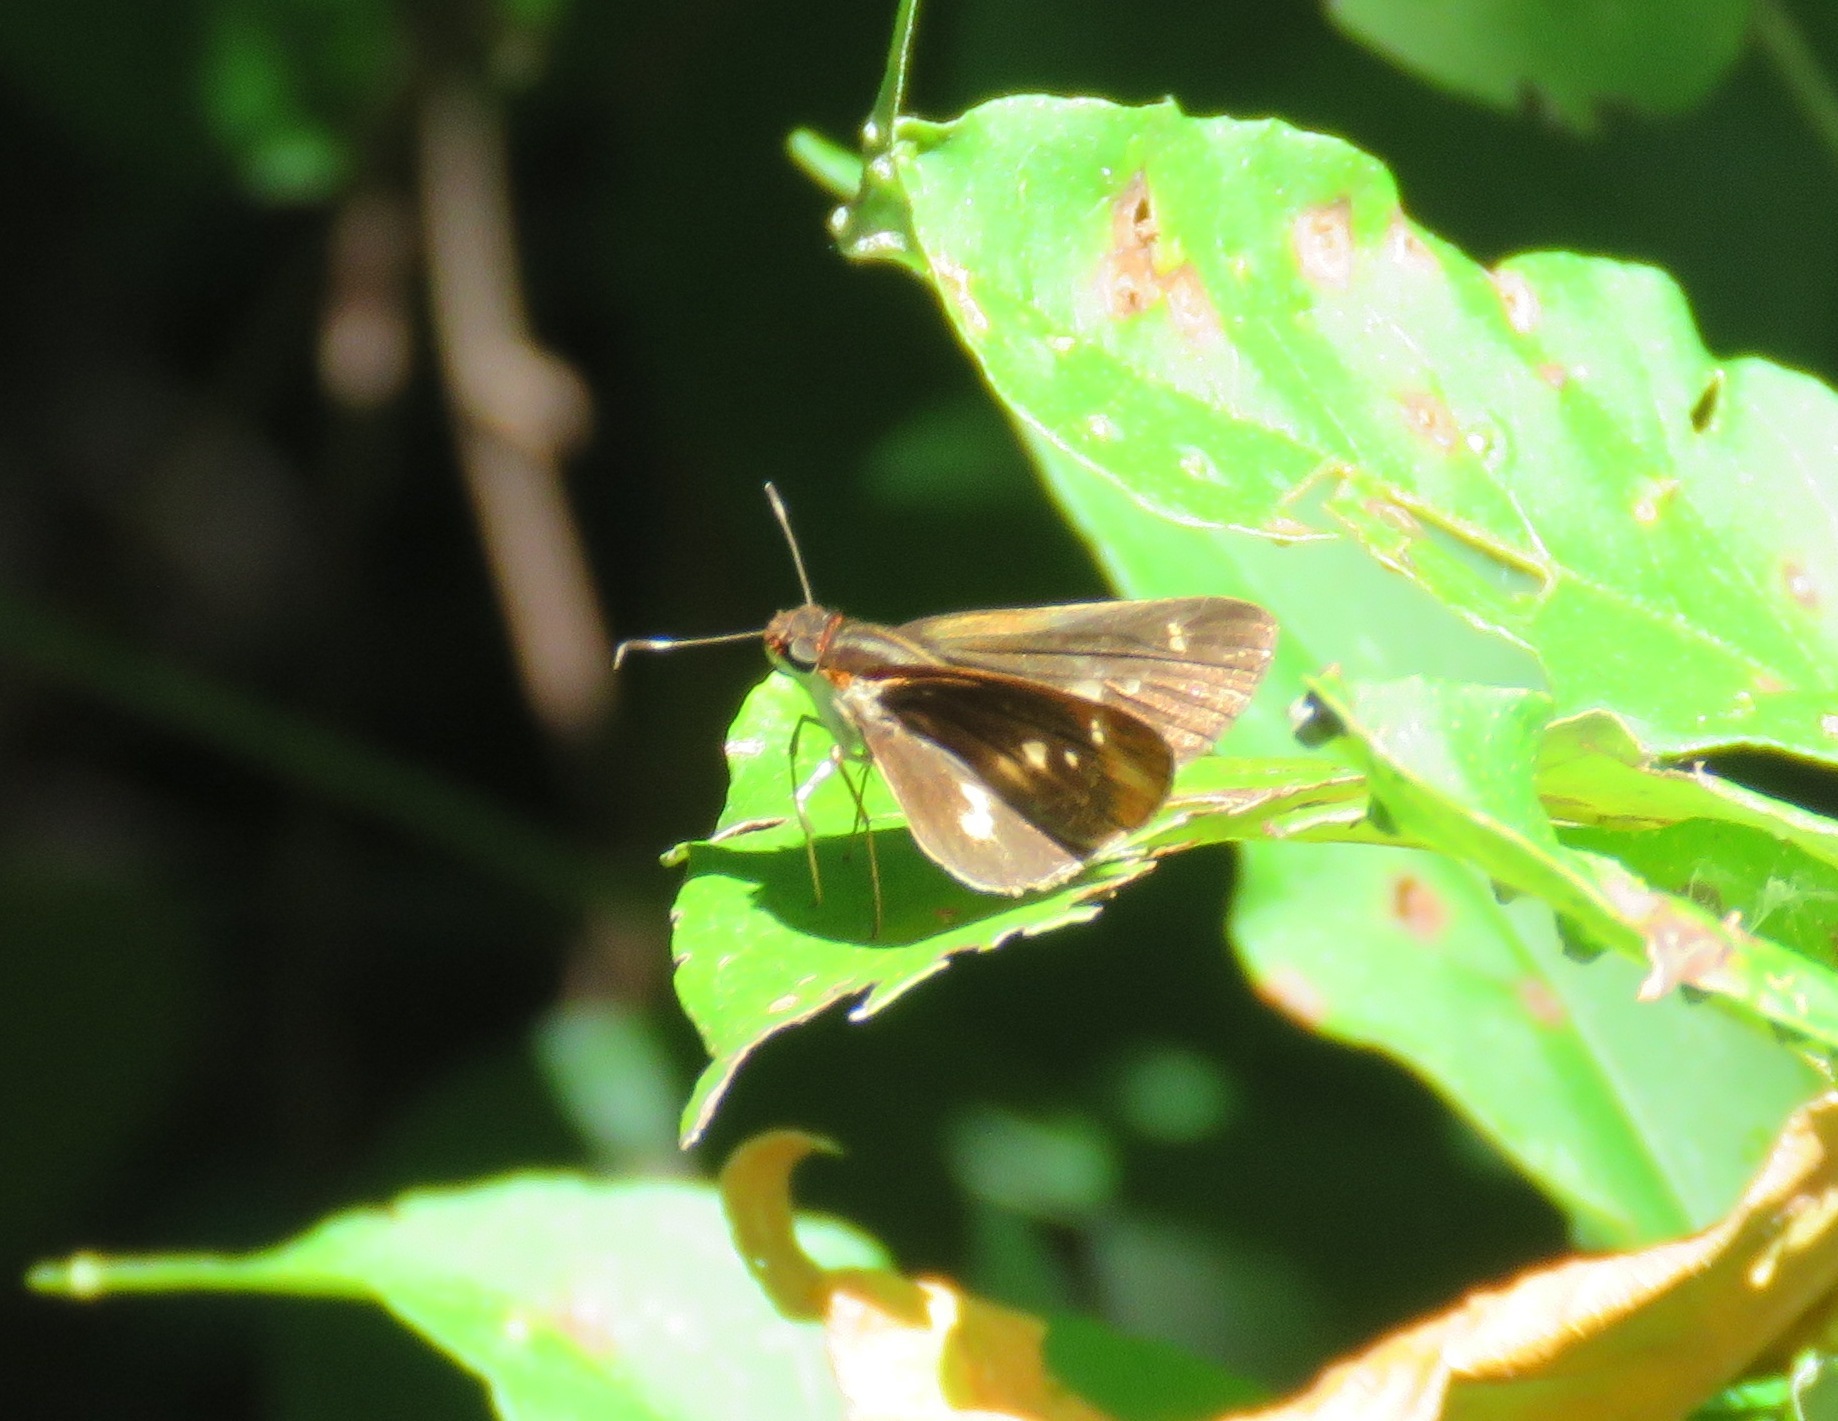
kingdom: Animalia
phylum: Arthropoda
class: Insecta
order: Lepidoptera
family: Hesperiidae
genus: Troyus
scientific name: Troyus fantasos
